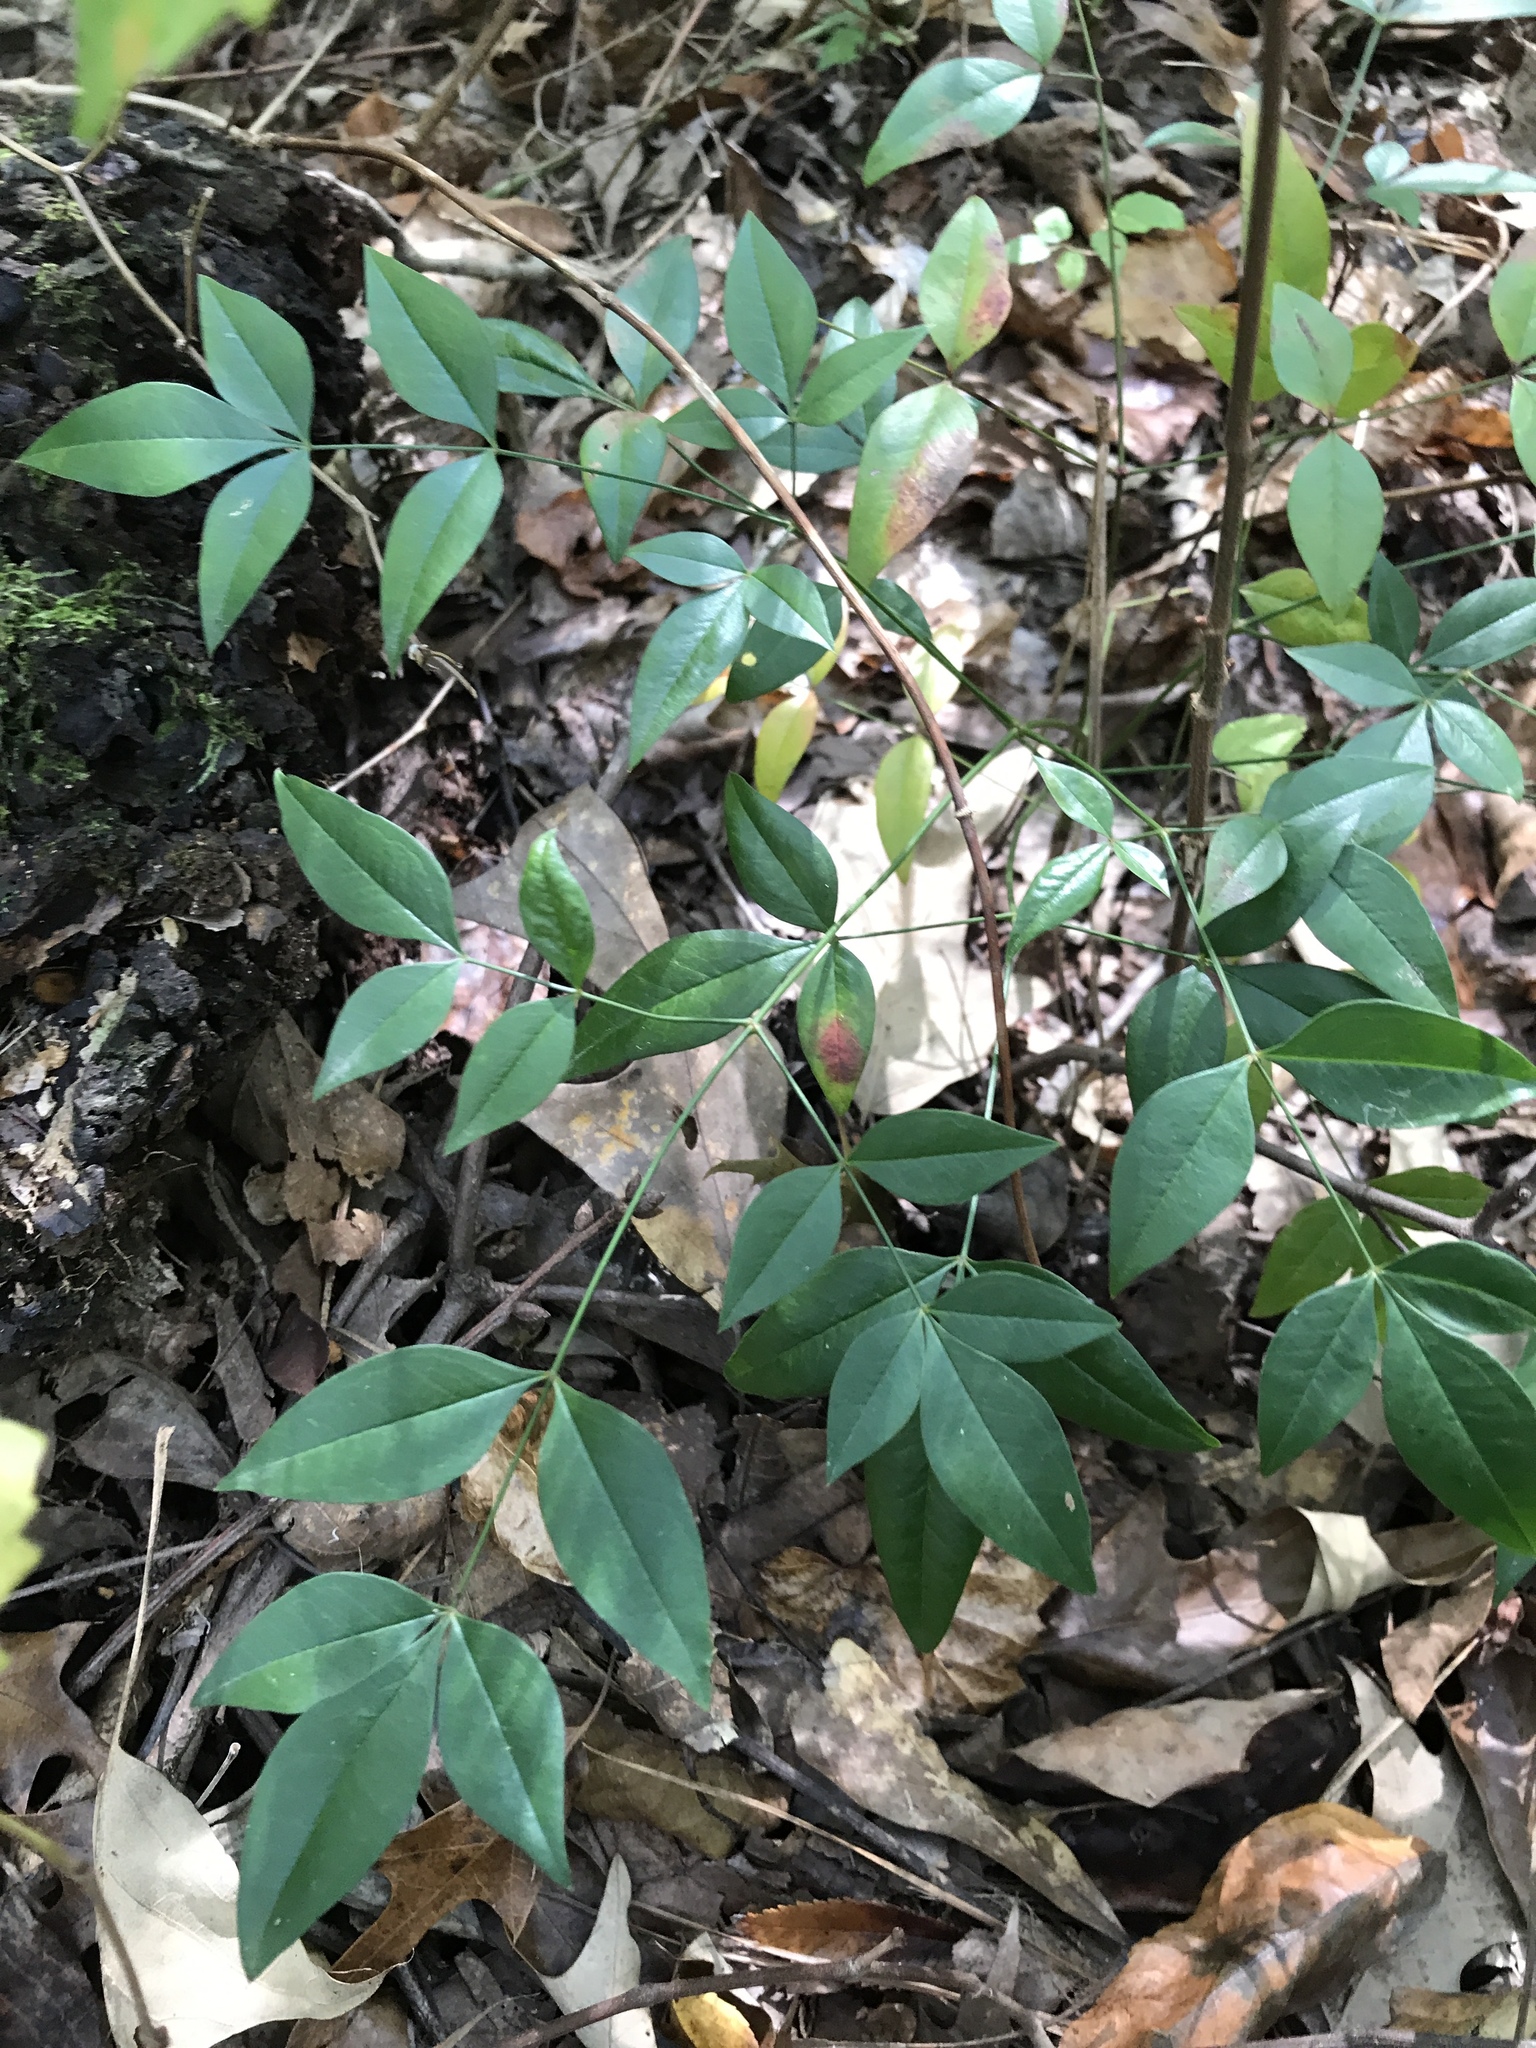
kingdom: Plantae
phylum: Tracheophyta
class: Magnoliopsida
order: Ranunculales
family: Berberidaceae
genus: Nandina
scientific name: Nandina domestica
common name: Sacred bamboo
